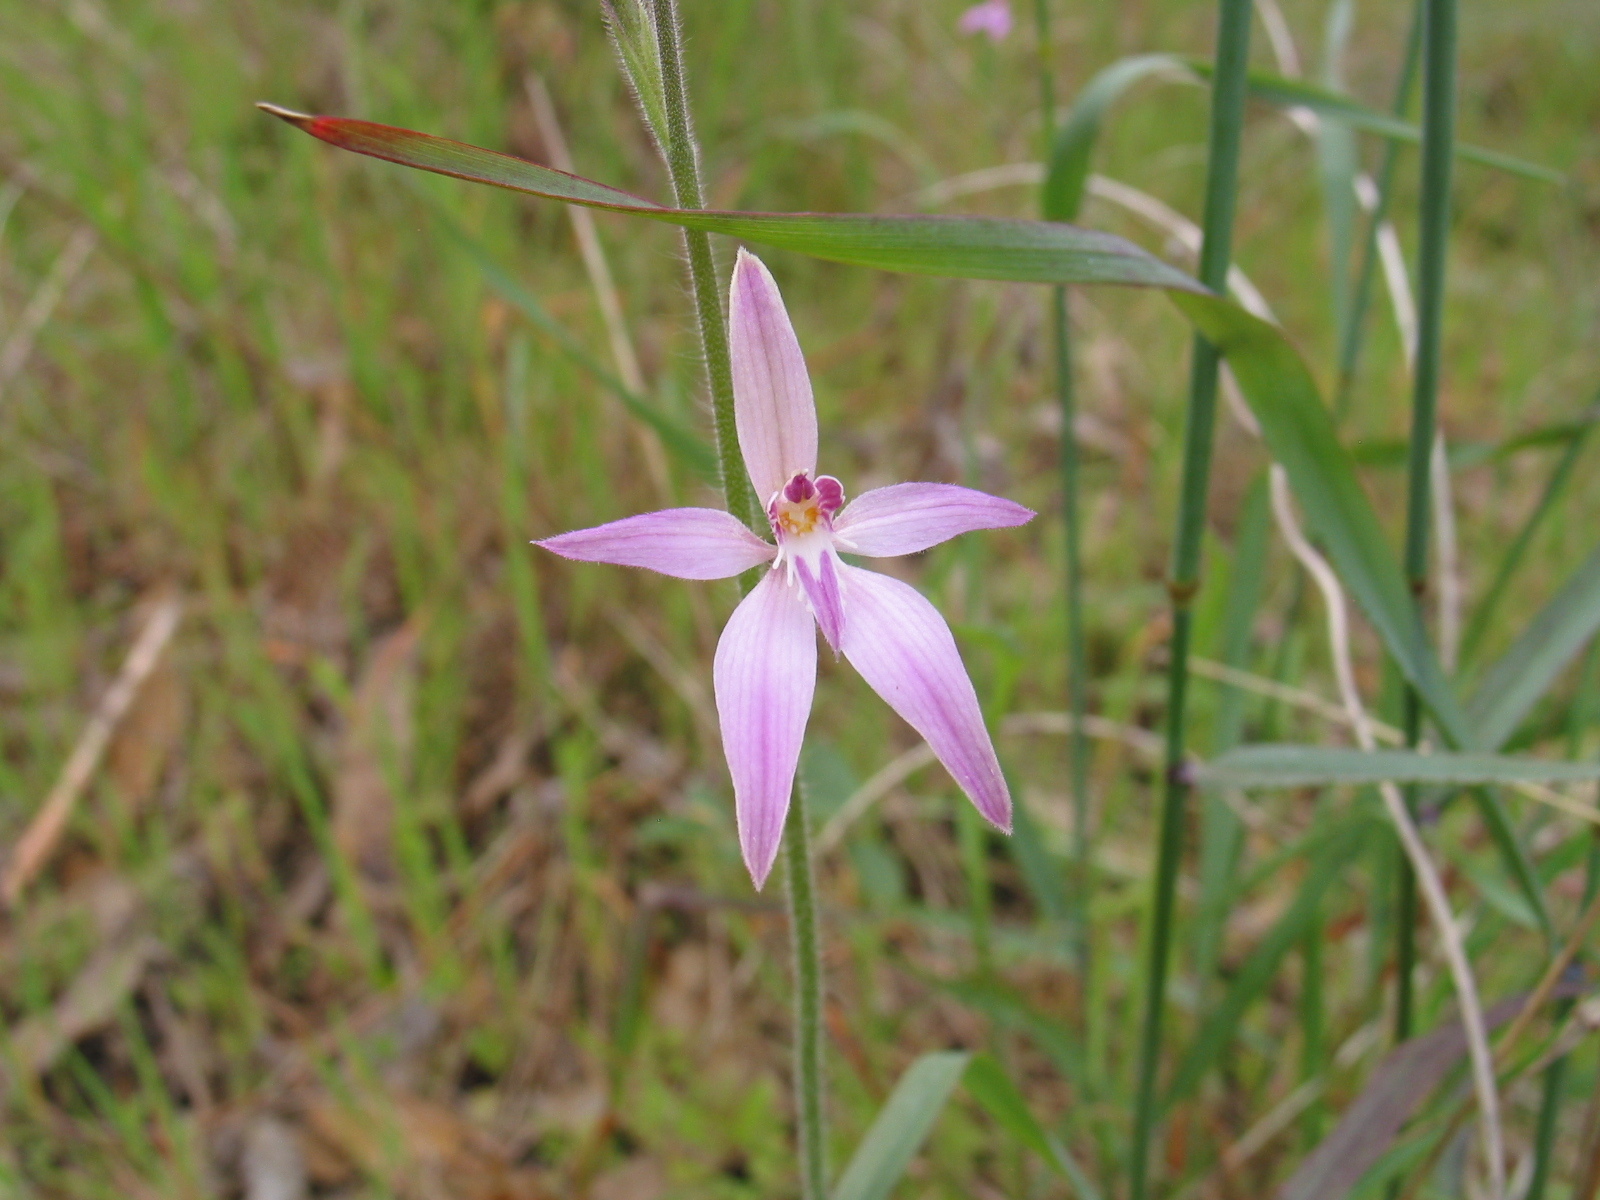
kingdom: Plantae
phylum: Tracheophyta
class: Liliopsida
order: Asparagales
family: Orchidaceae
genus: Caladenia
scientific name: Caladenia latifolia
